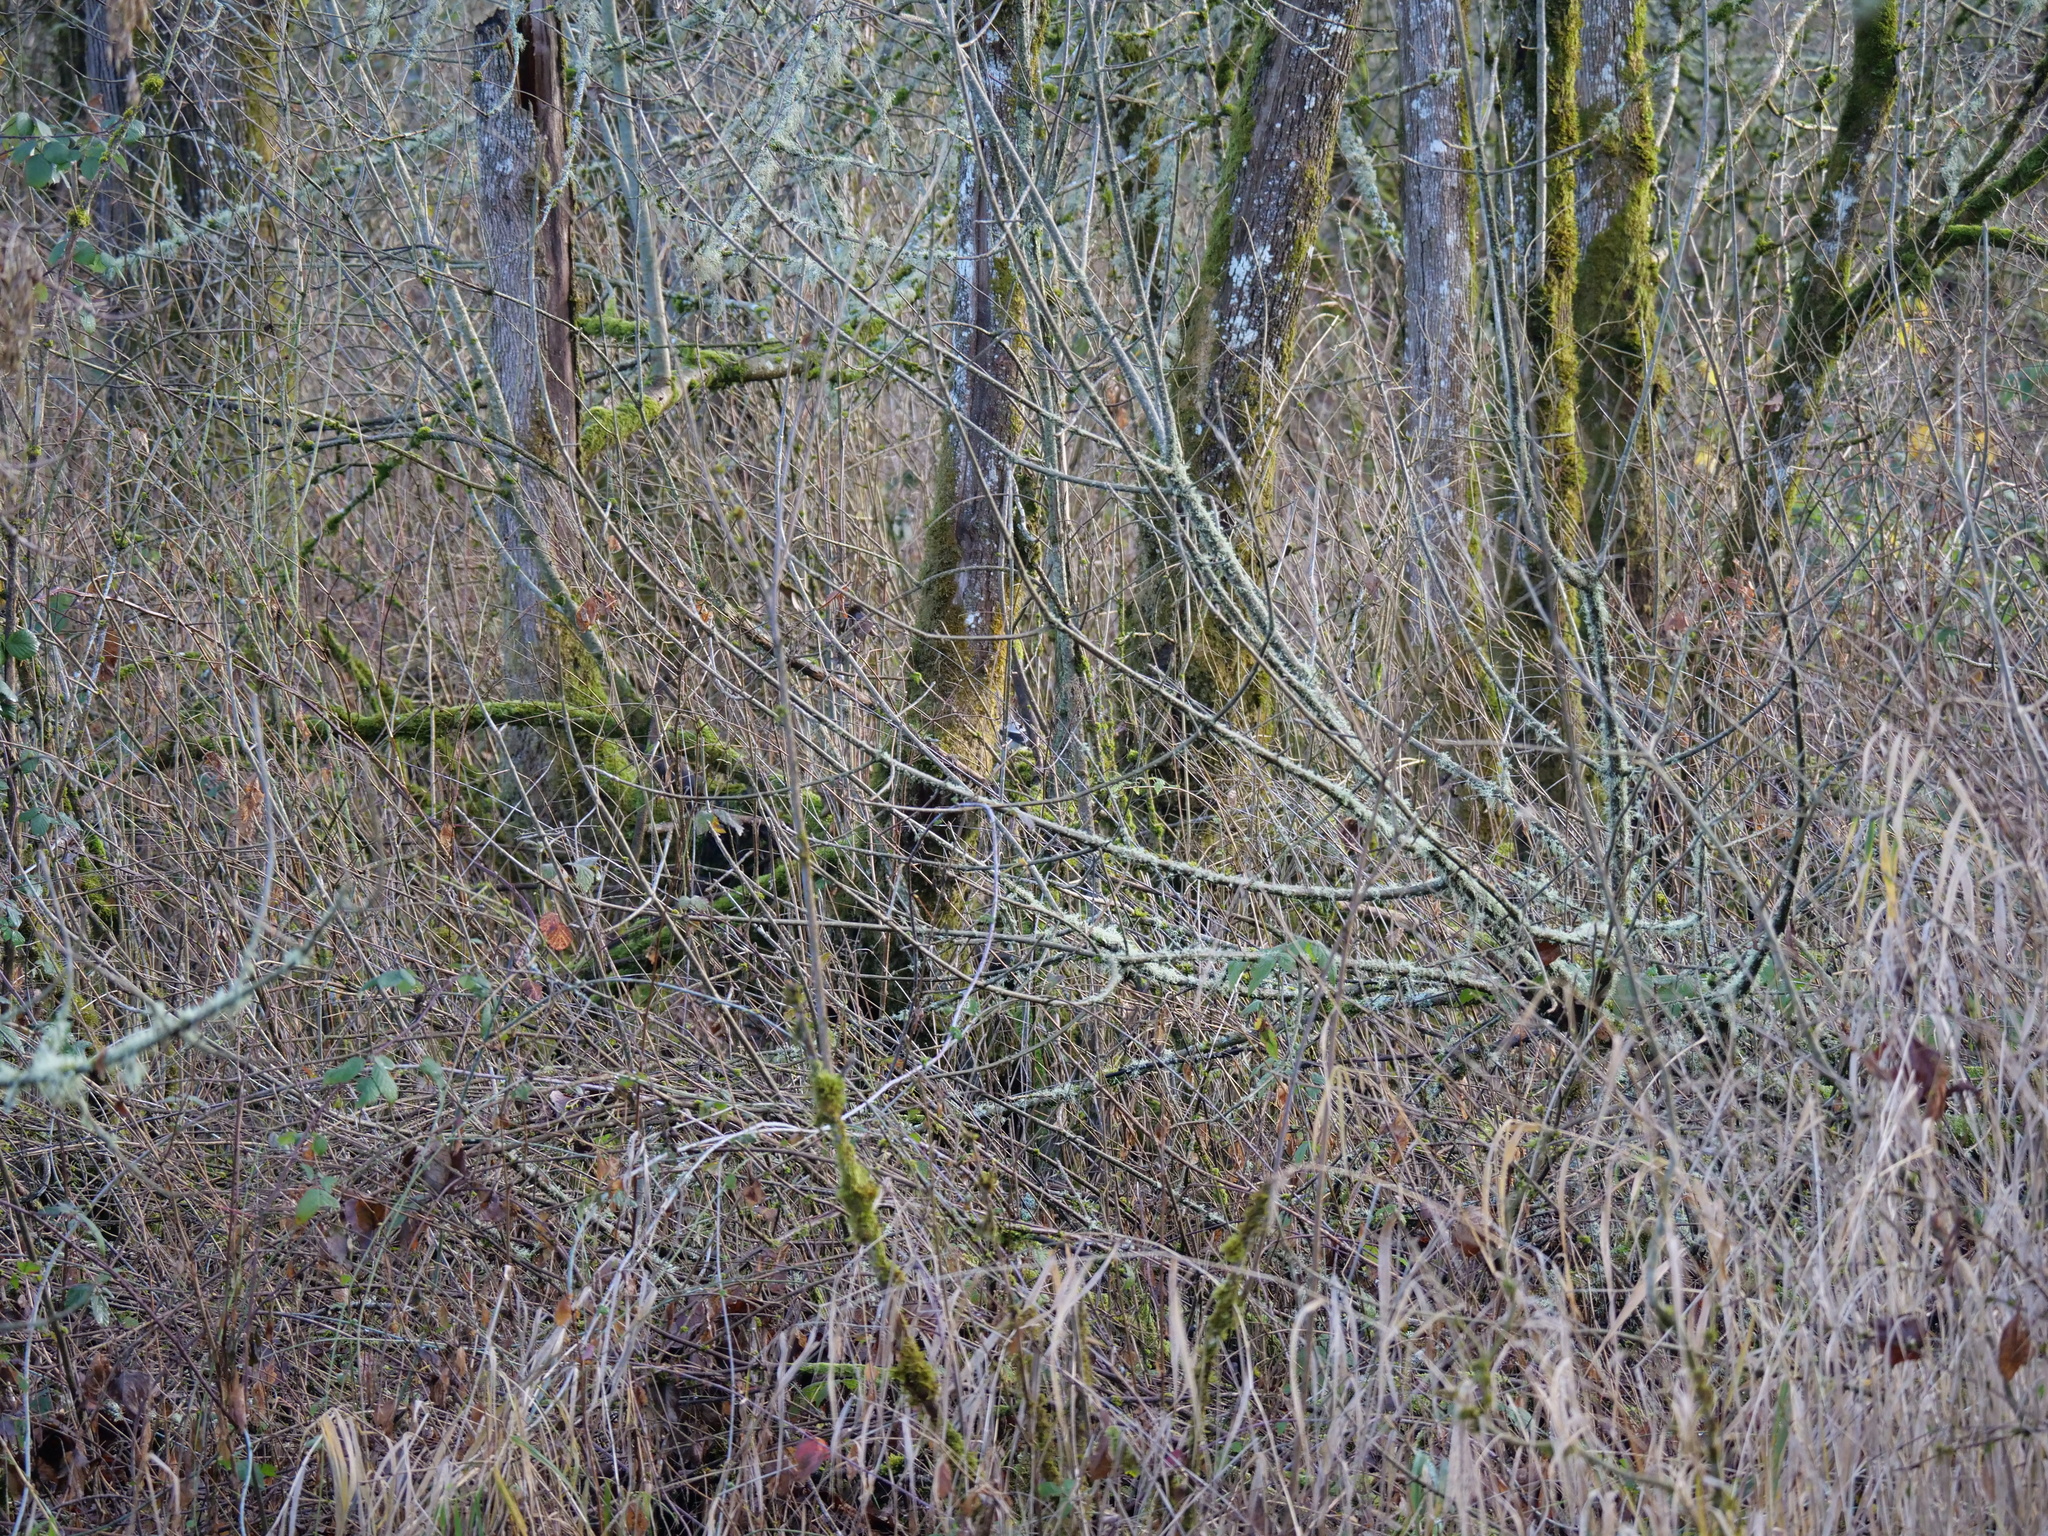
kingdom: Animalia
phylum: Chordata
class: Aves
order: Passeriformes
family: Laniidae
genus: Lanius
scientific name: Lanius borealis
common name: Northern shrike
